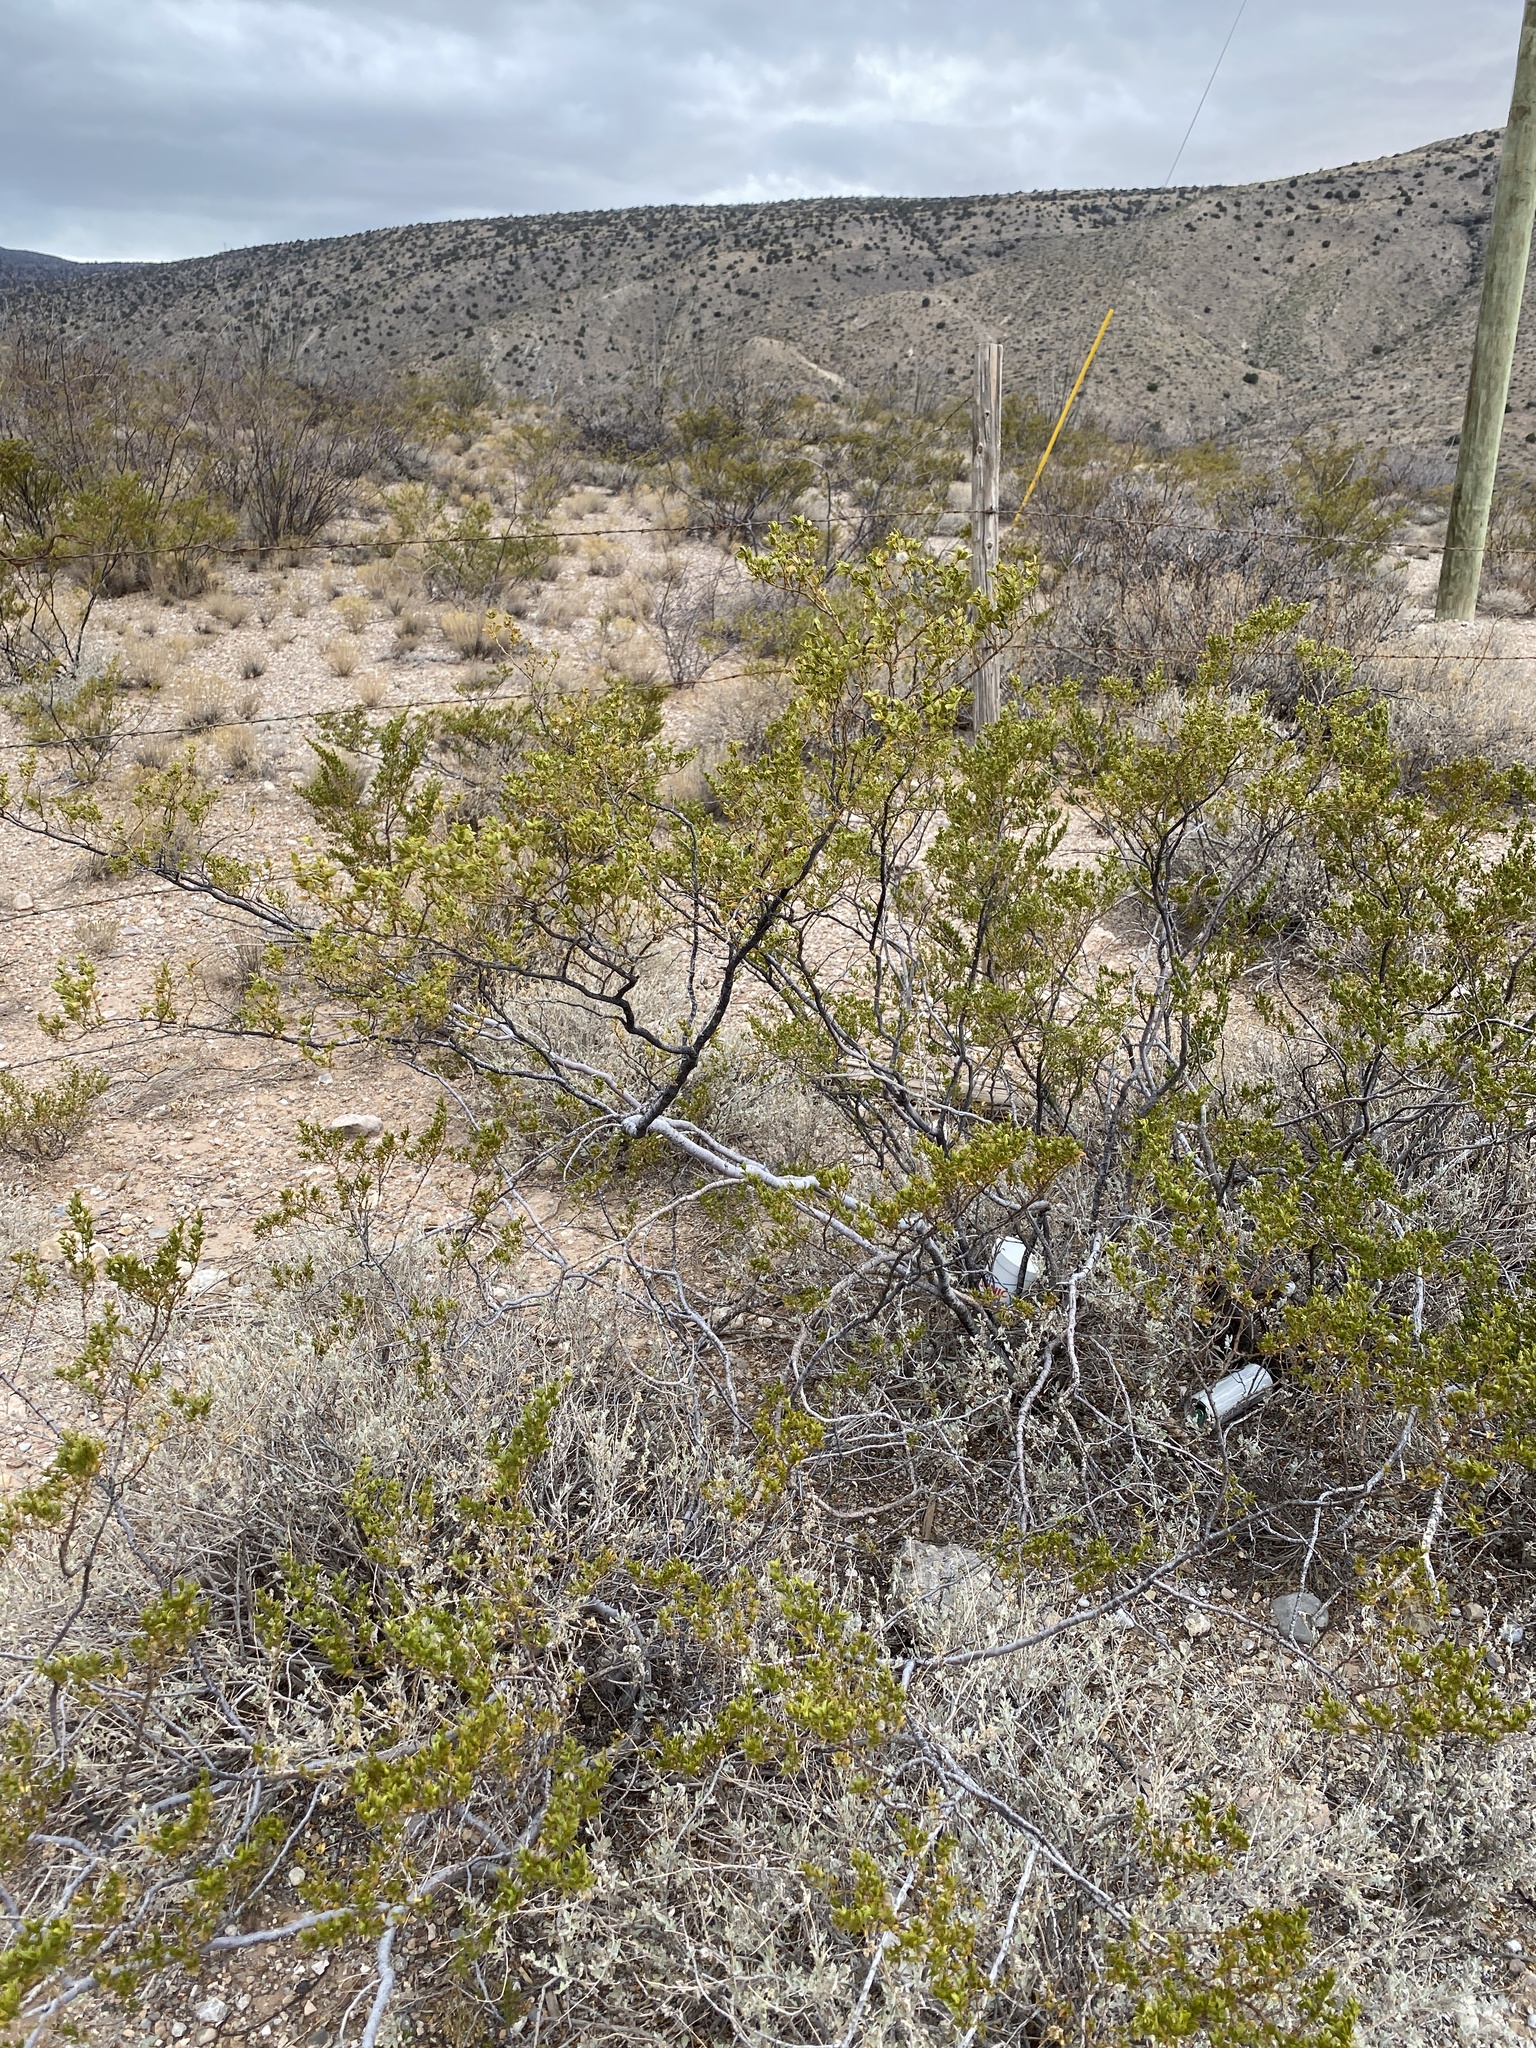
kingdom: Plantae
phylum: Tracheophyta
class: Magnoliopsida
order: Zygophyllales
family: Zygophyllaceae
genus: Larrea
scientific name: Larrea tridentata
